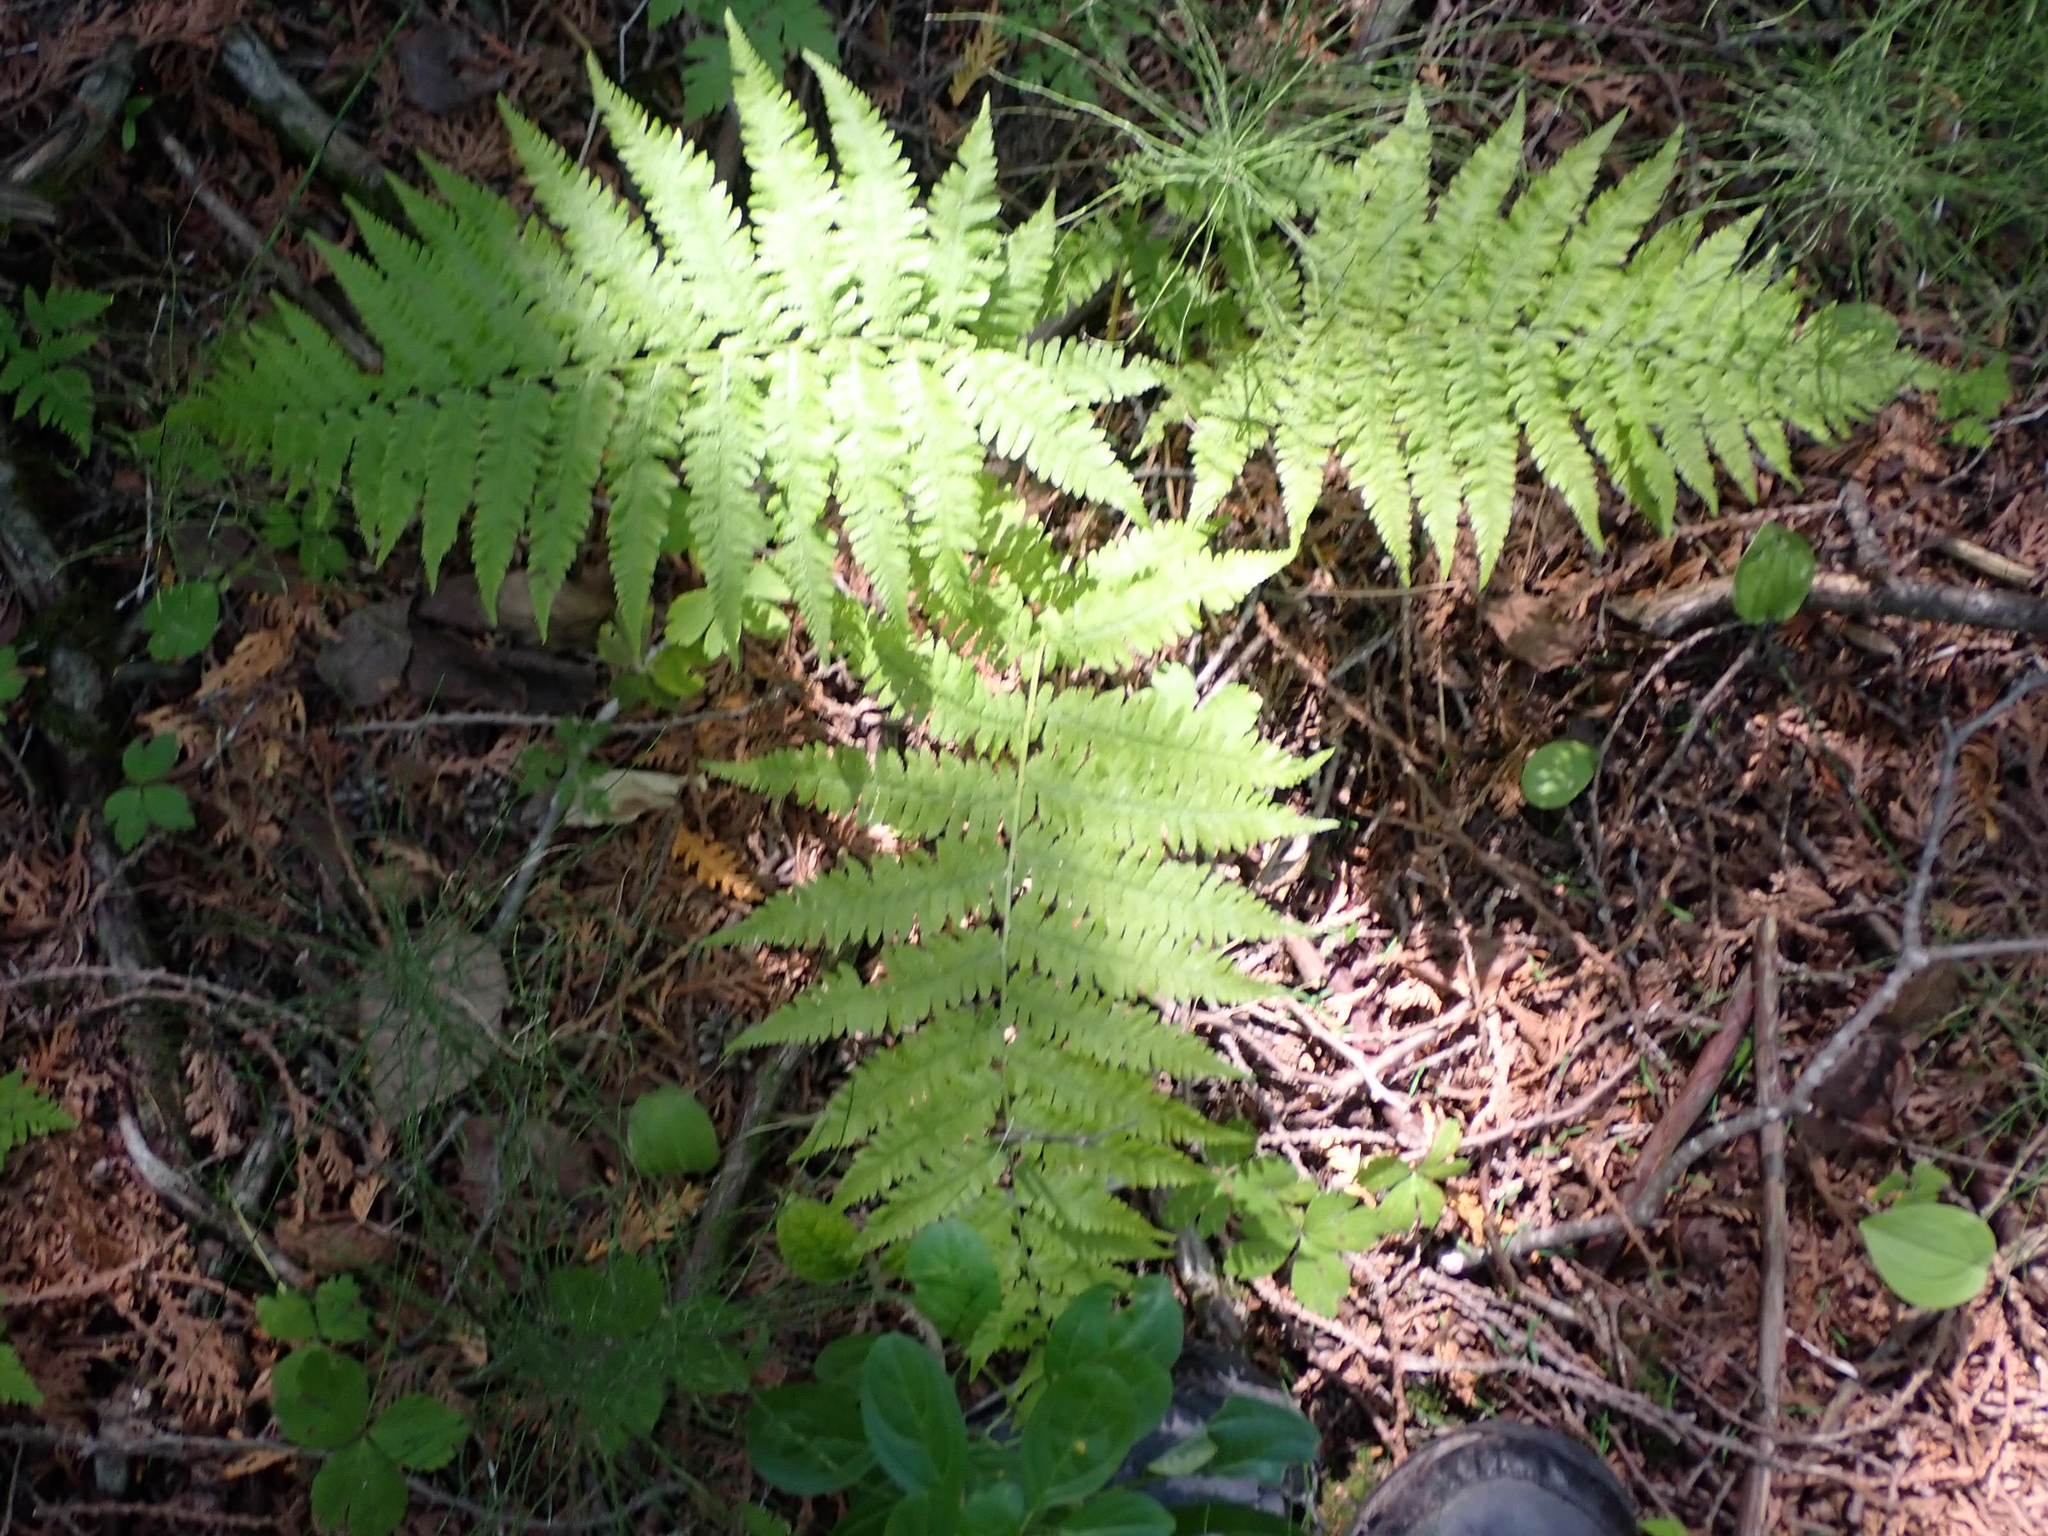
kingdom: Plantae
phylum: Tracheophyta
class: Polypodiopsida
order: Polypodiales
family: Athyriaceae
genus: Athyrium
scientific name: Athyrium angustum
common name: Northern lady fern
